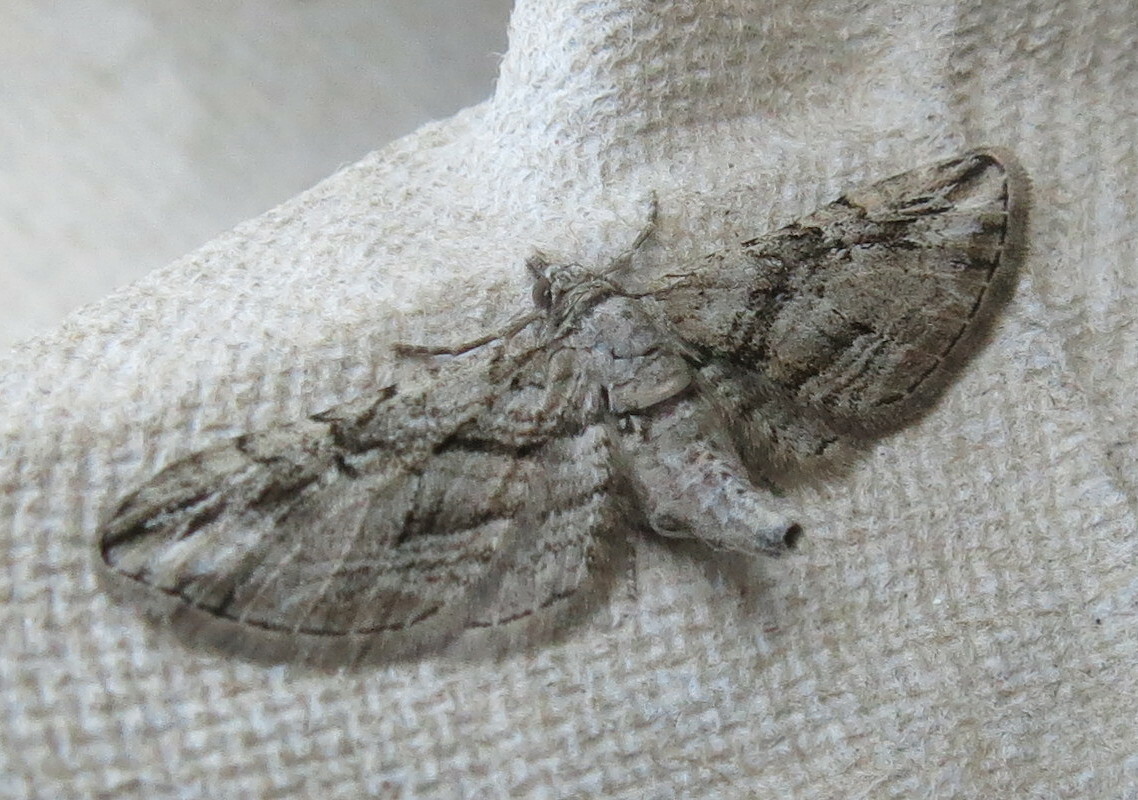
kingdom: Animalia
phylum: Arthropoda
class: Insecta
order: Lepidoptera
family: Geometridae
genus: Eupithecia
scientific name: Eupithecia phoeniceata
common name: Cypress pug
